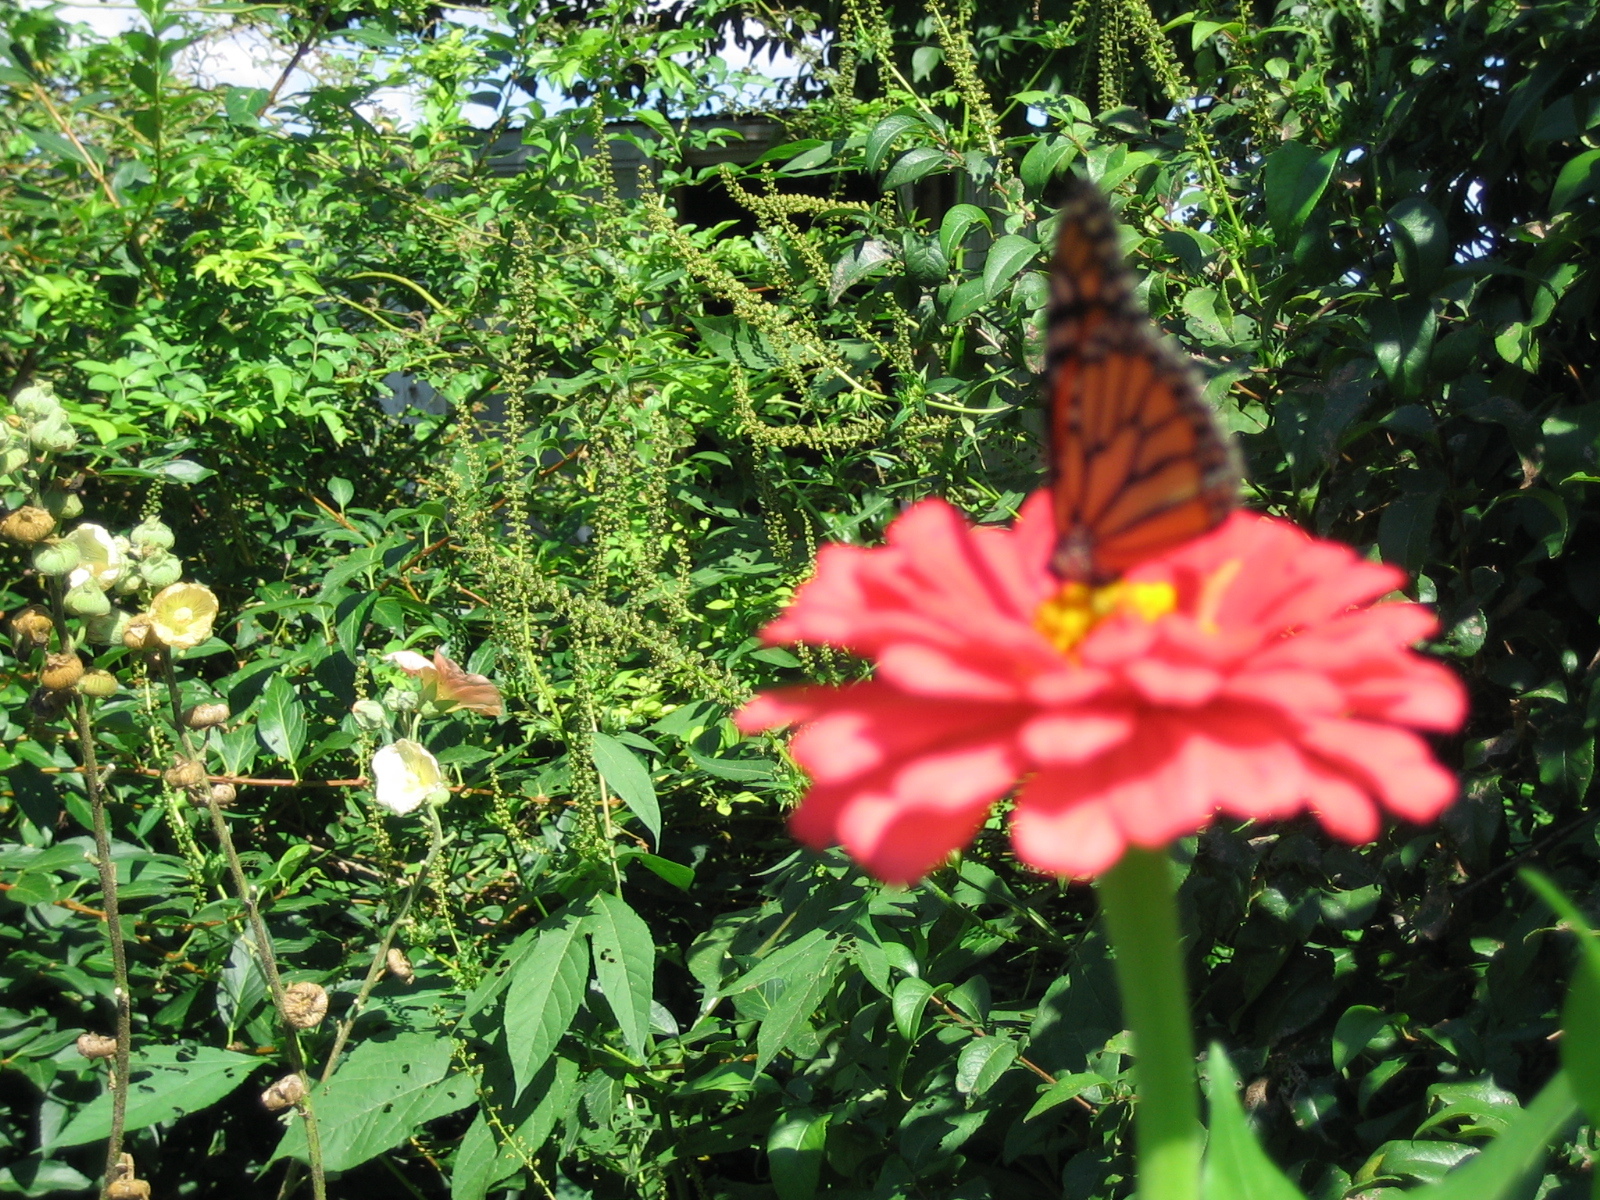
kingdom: Animalia
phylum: Arthropoda
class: Insecta
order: Lepidoptera
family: Nymphalidae
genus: Danaus
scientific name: Danaus plexippus
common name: Monarch
